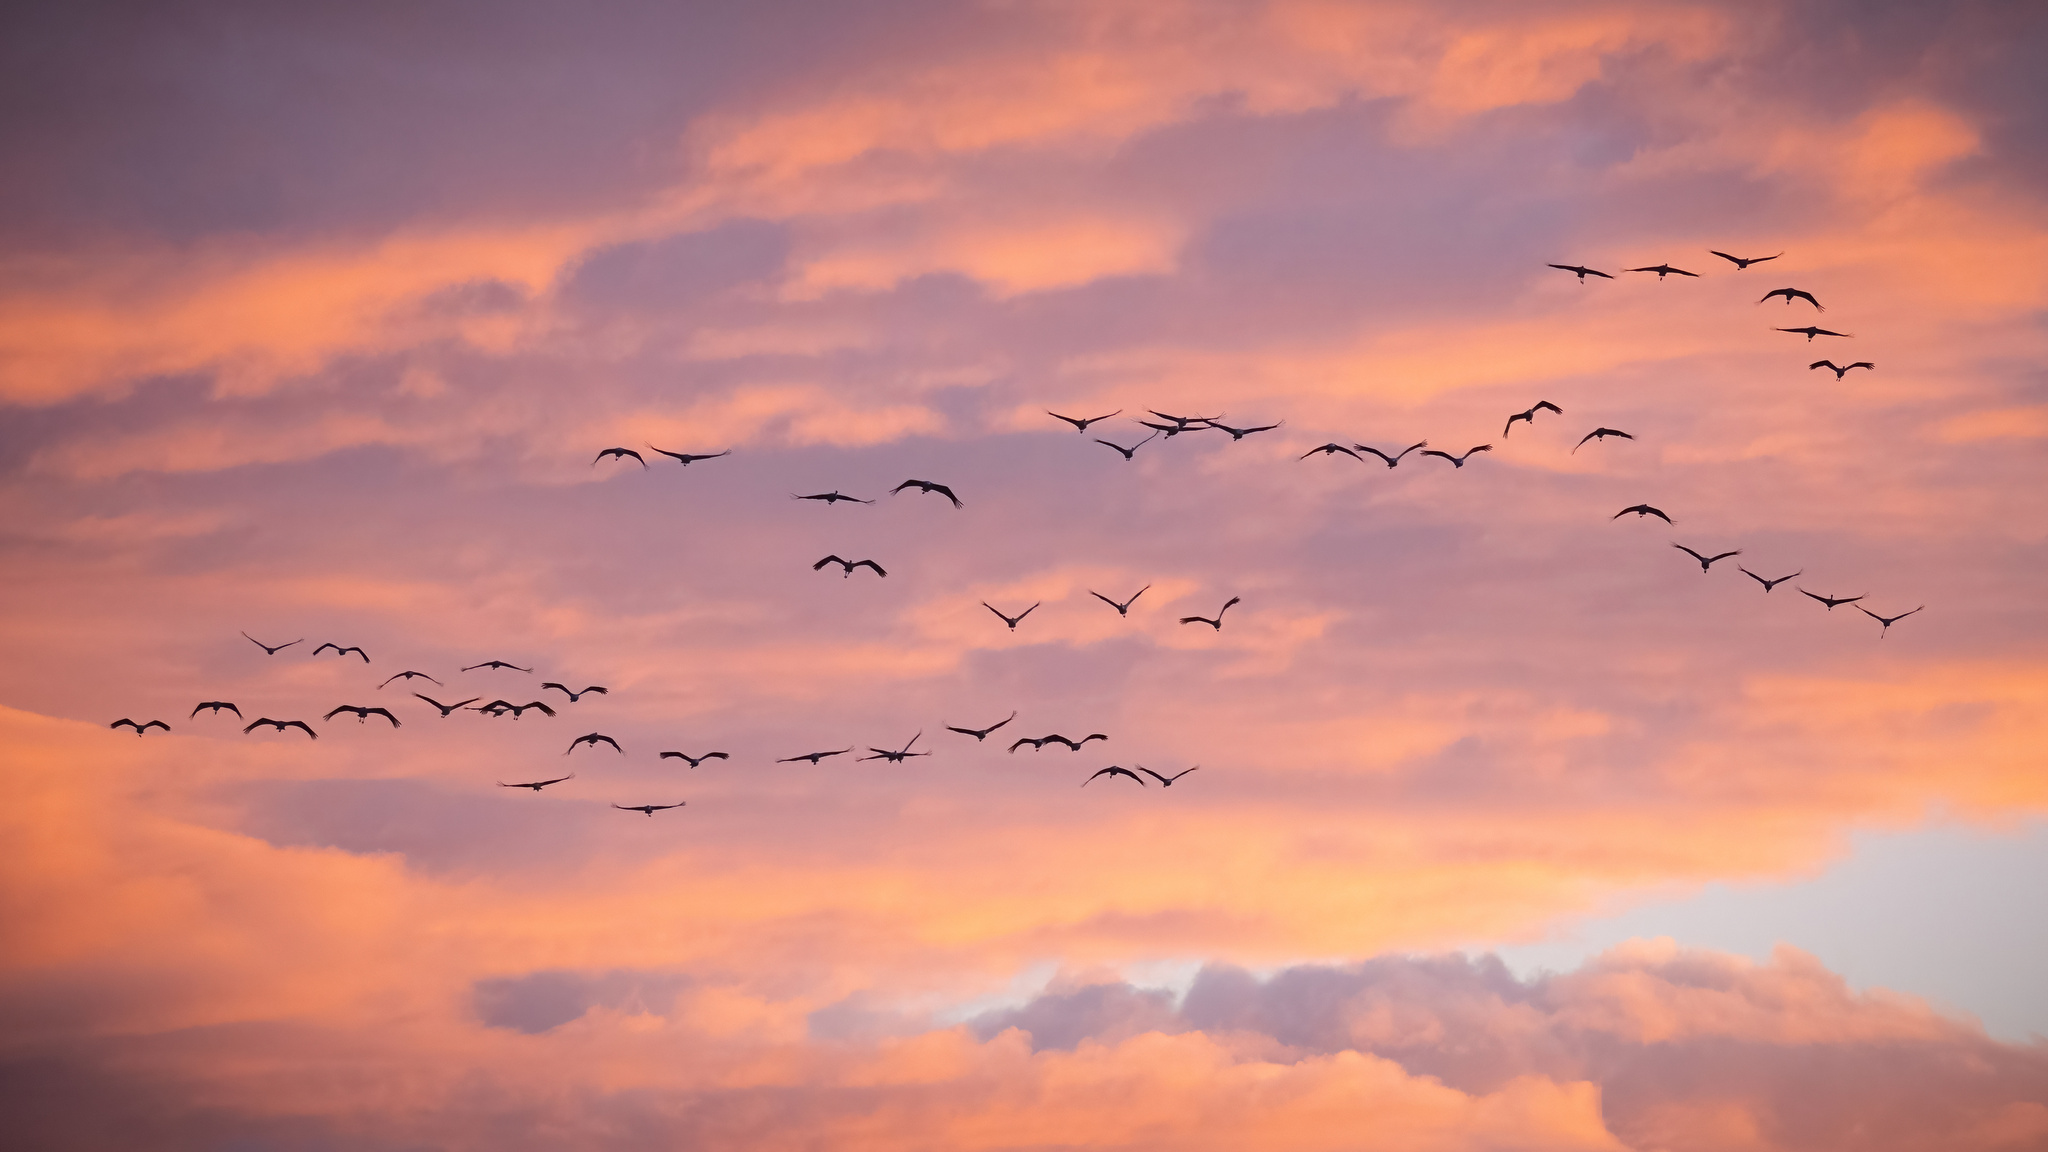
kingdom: Animalia
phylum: Chordata
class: Aves
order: Gruiformes
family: Gruidae
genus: Grus
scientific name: Grus grus
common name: Common crane
